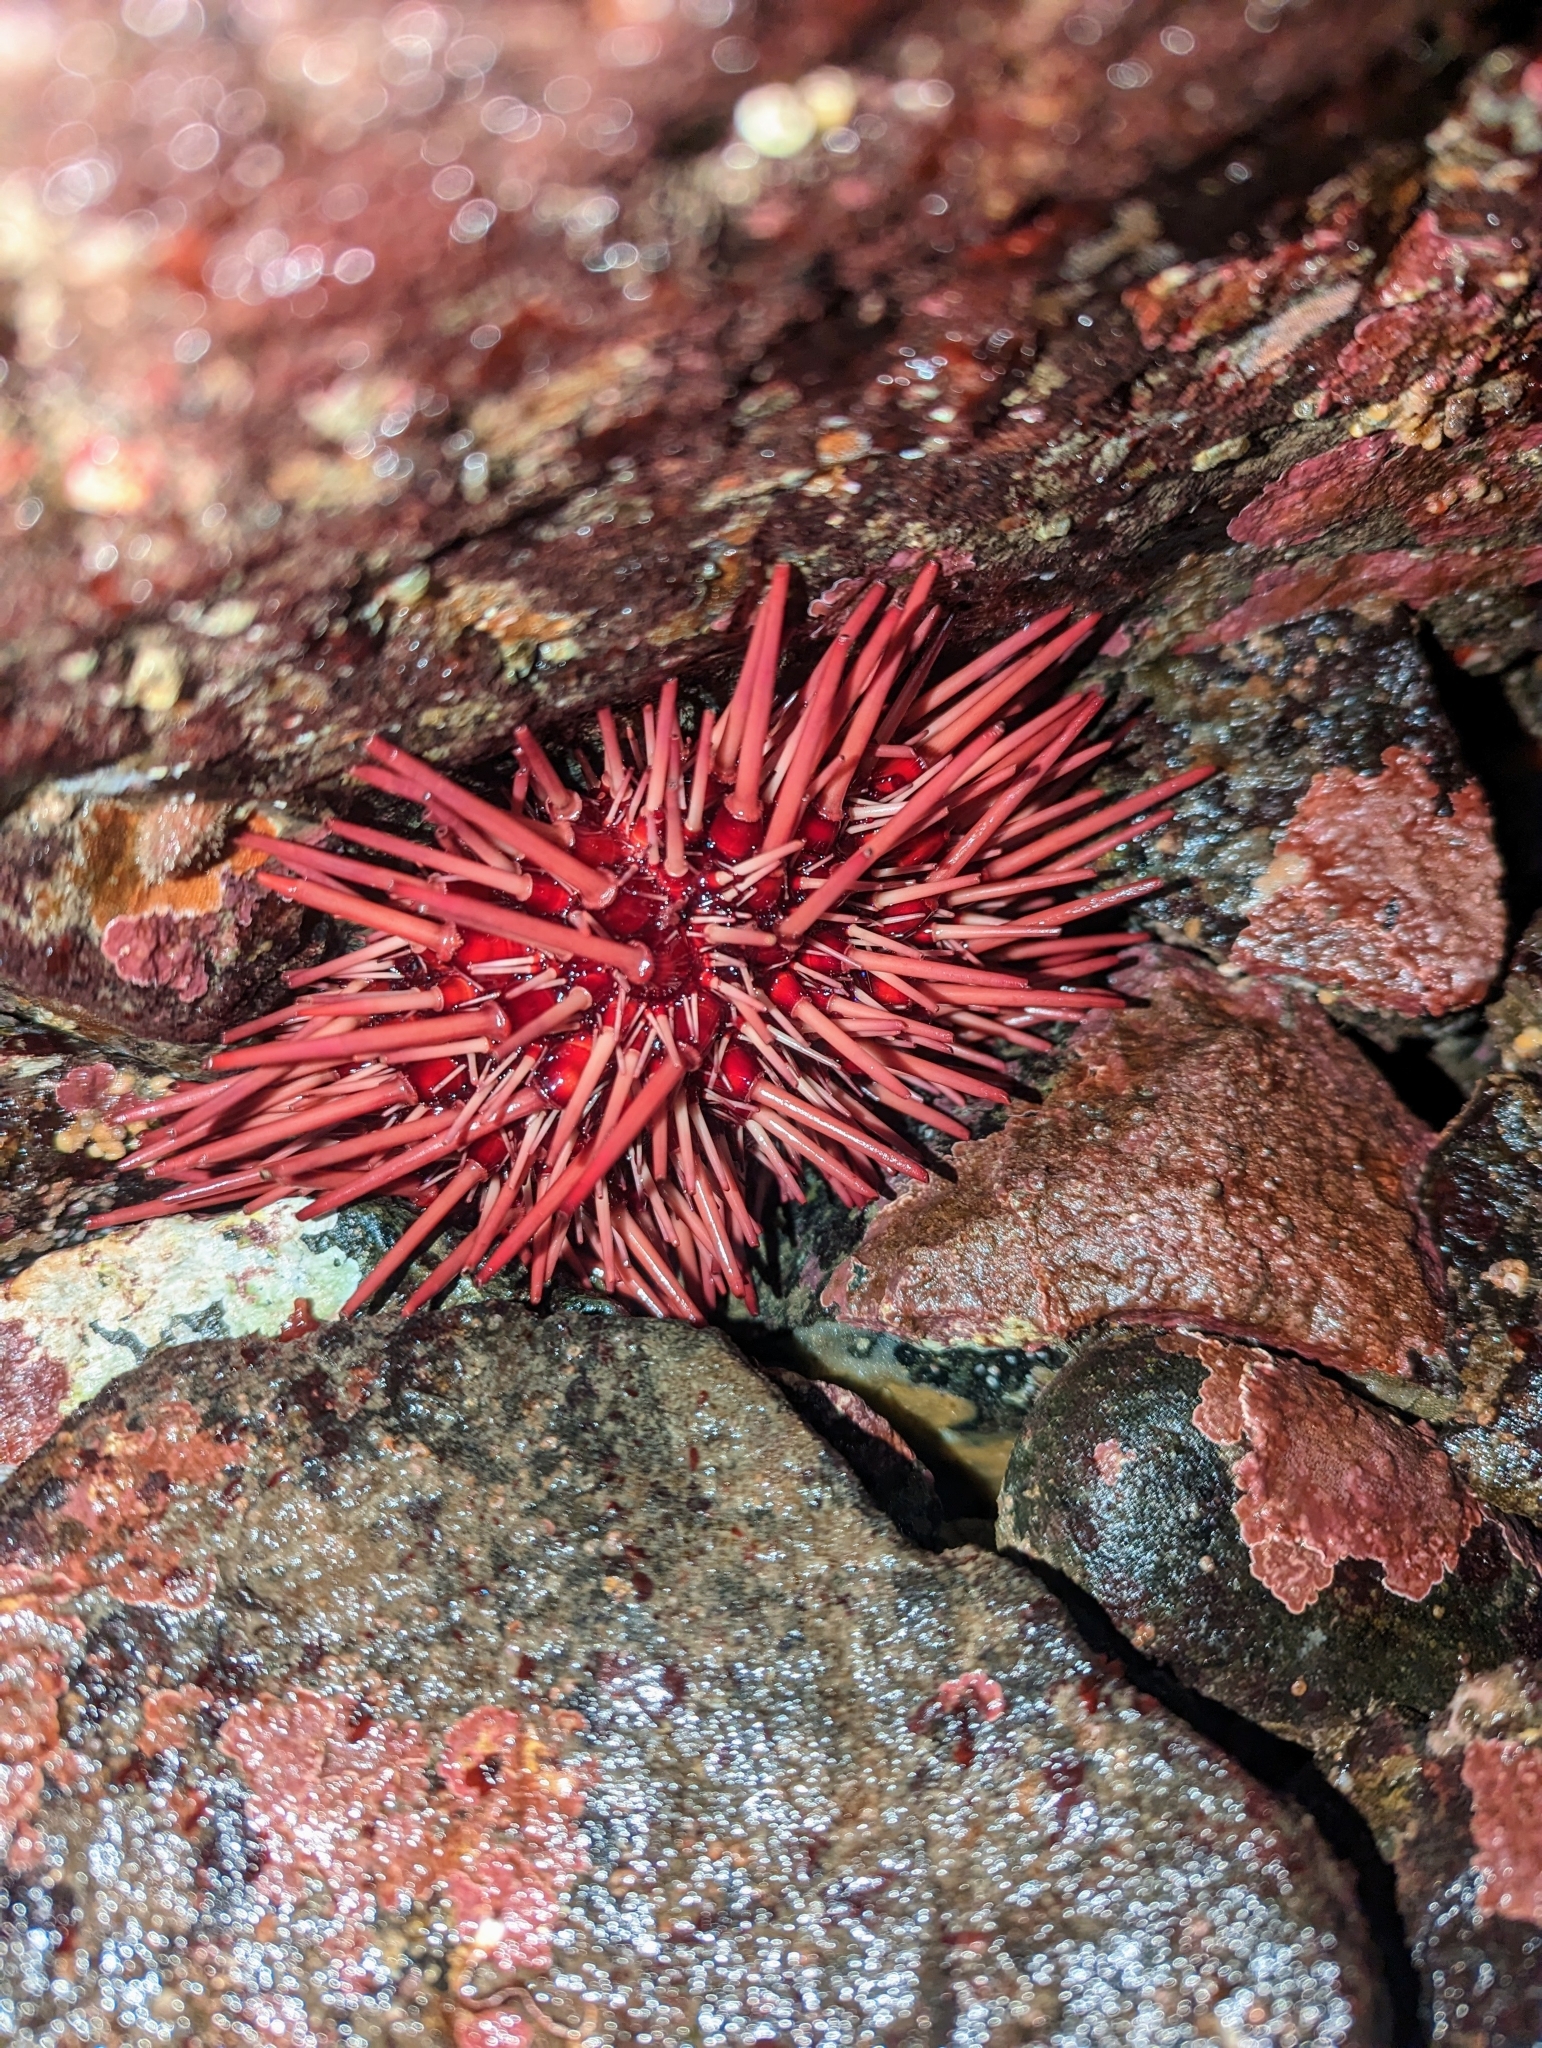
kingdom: Animalia
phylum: Echinodermata
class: Echinoidea
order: Camarodonta
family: Strongylocentrotidae
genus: Mesocentrotus
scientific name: Mesocentrotus franciscanus
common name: Red sea urchin
